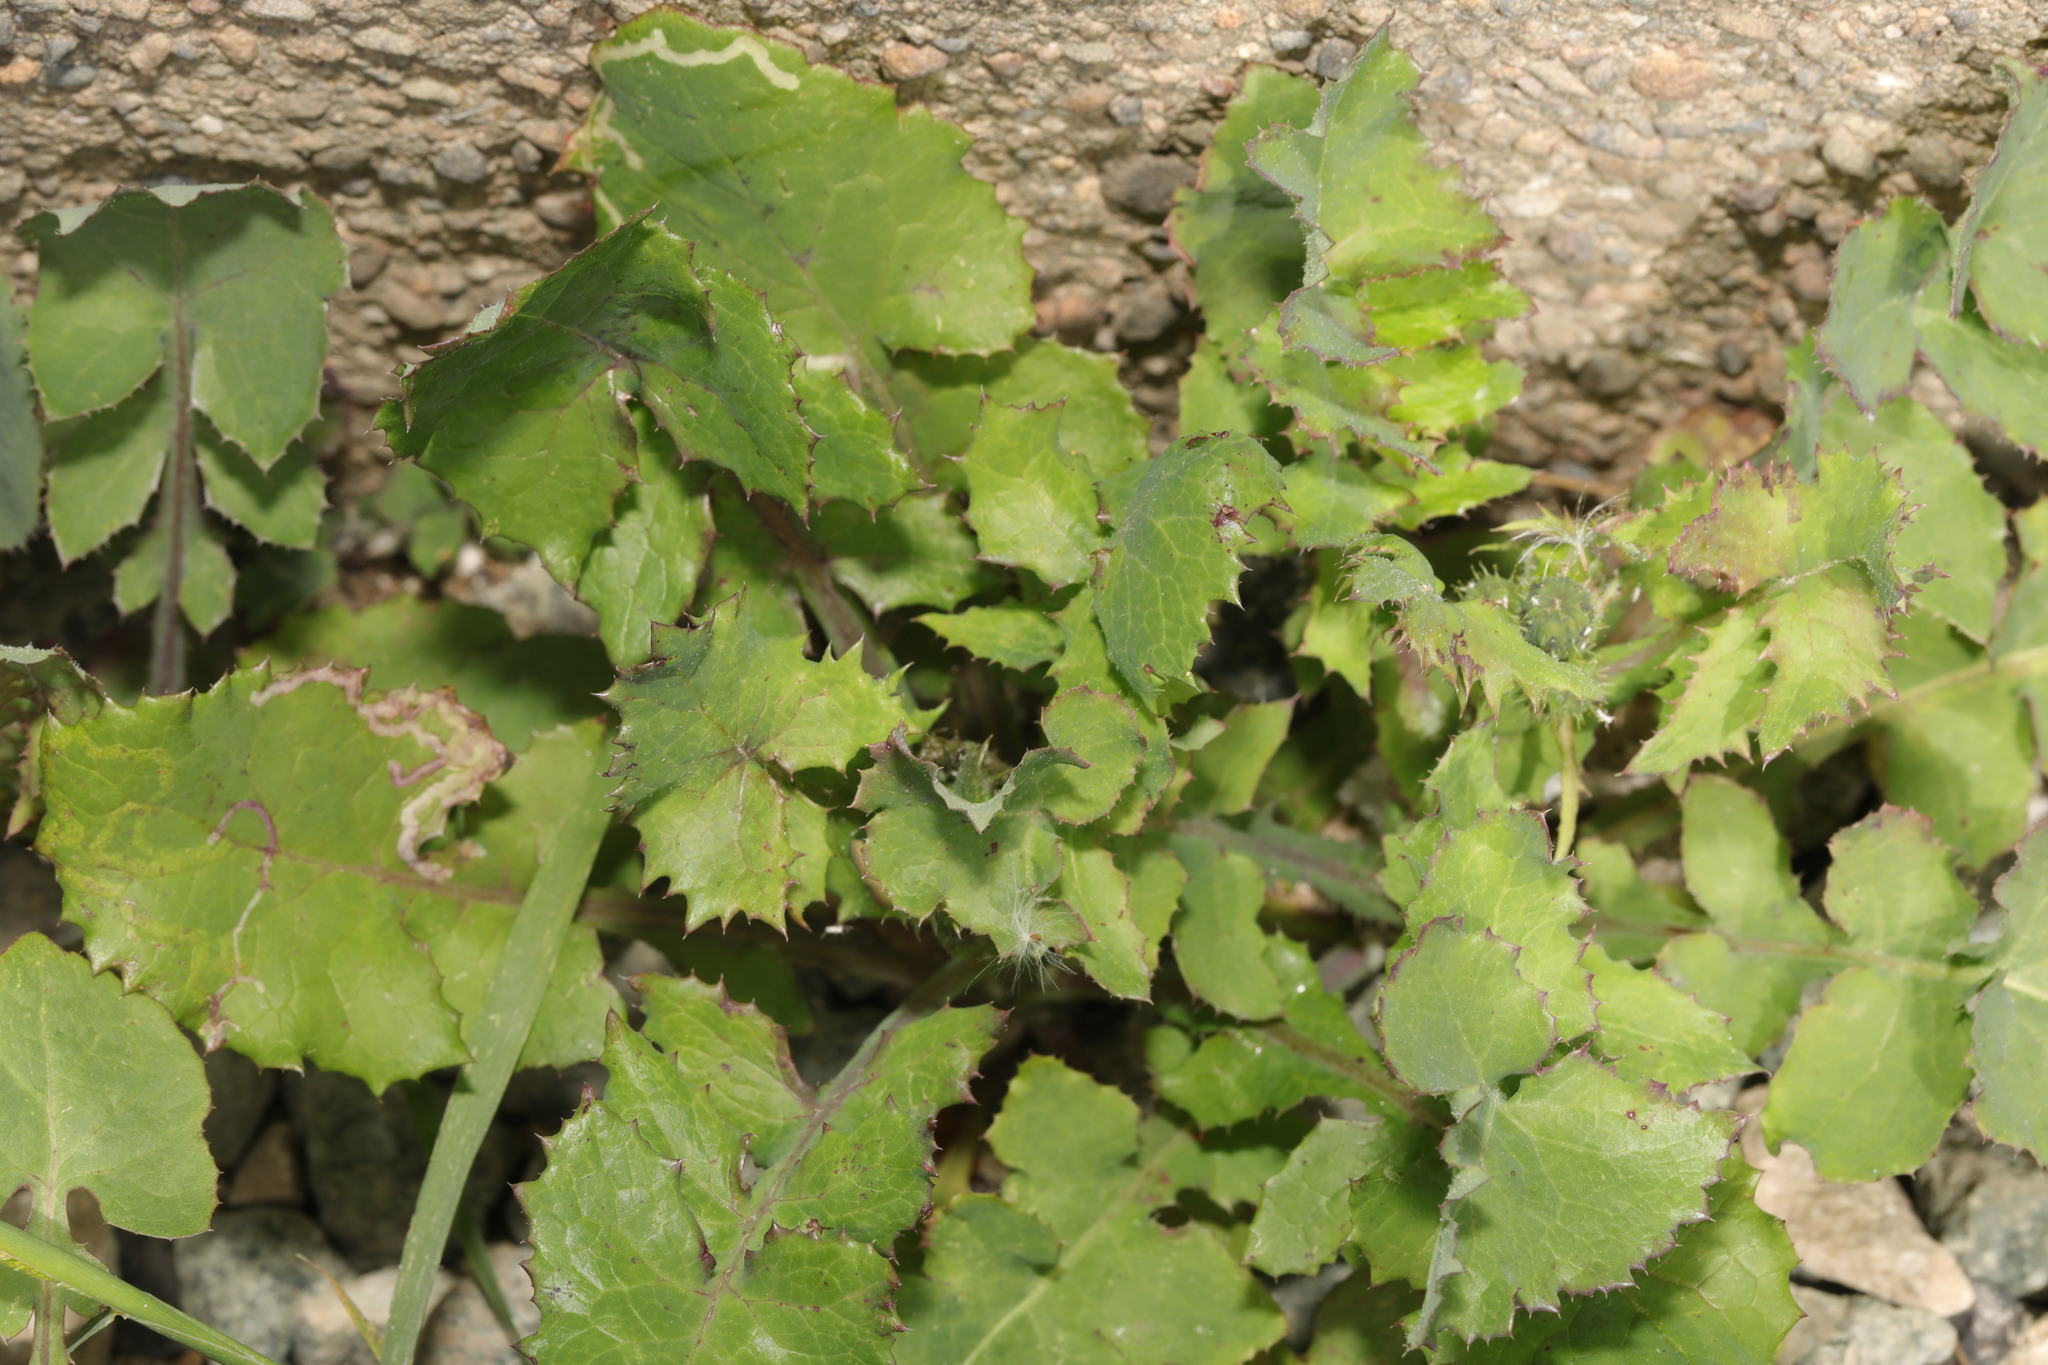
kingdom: Plantae
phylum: Tracheophyta
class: Magnoliopsida
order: Asterales
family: Asteraceae
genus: Sonchus
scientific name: Sonchus oleraceus
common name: Common sowthistle
